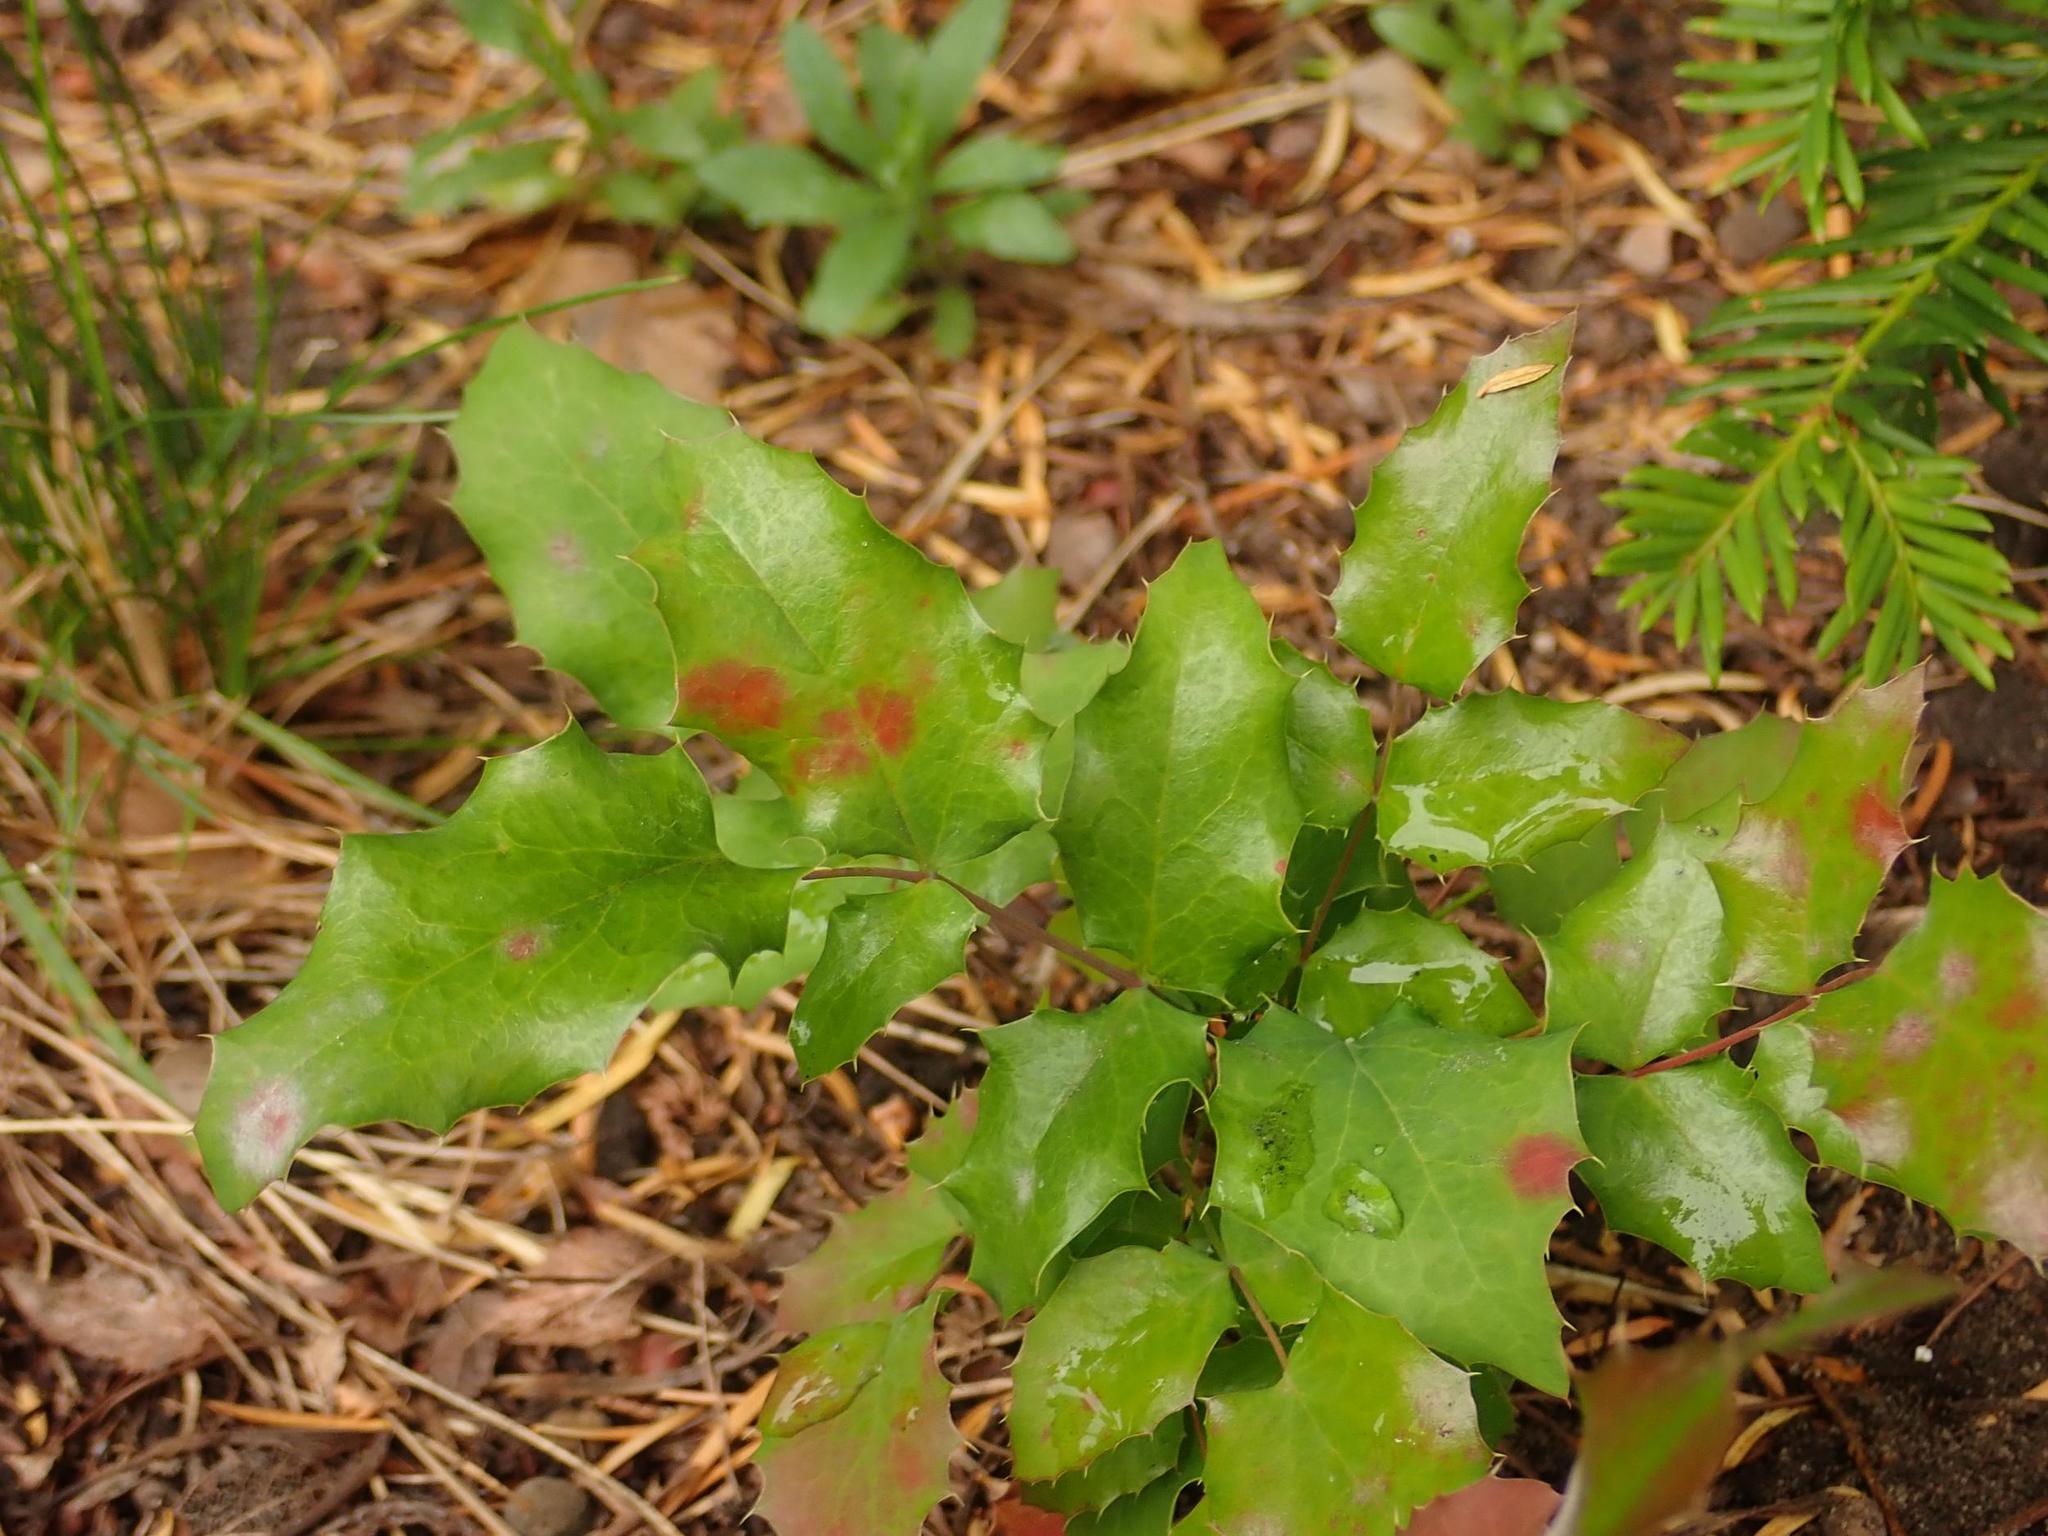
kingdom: Plantae
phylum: Tracheophyta
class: Magnoliopsida
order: Ranunculales
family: Berberidaceae
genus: Mahonia
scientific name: Mahonia aquifolium
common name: Oregon-grape
